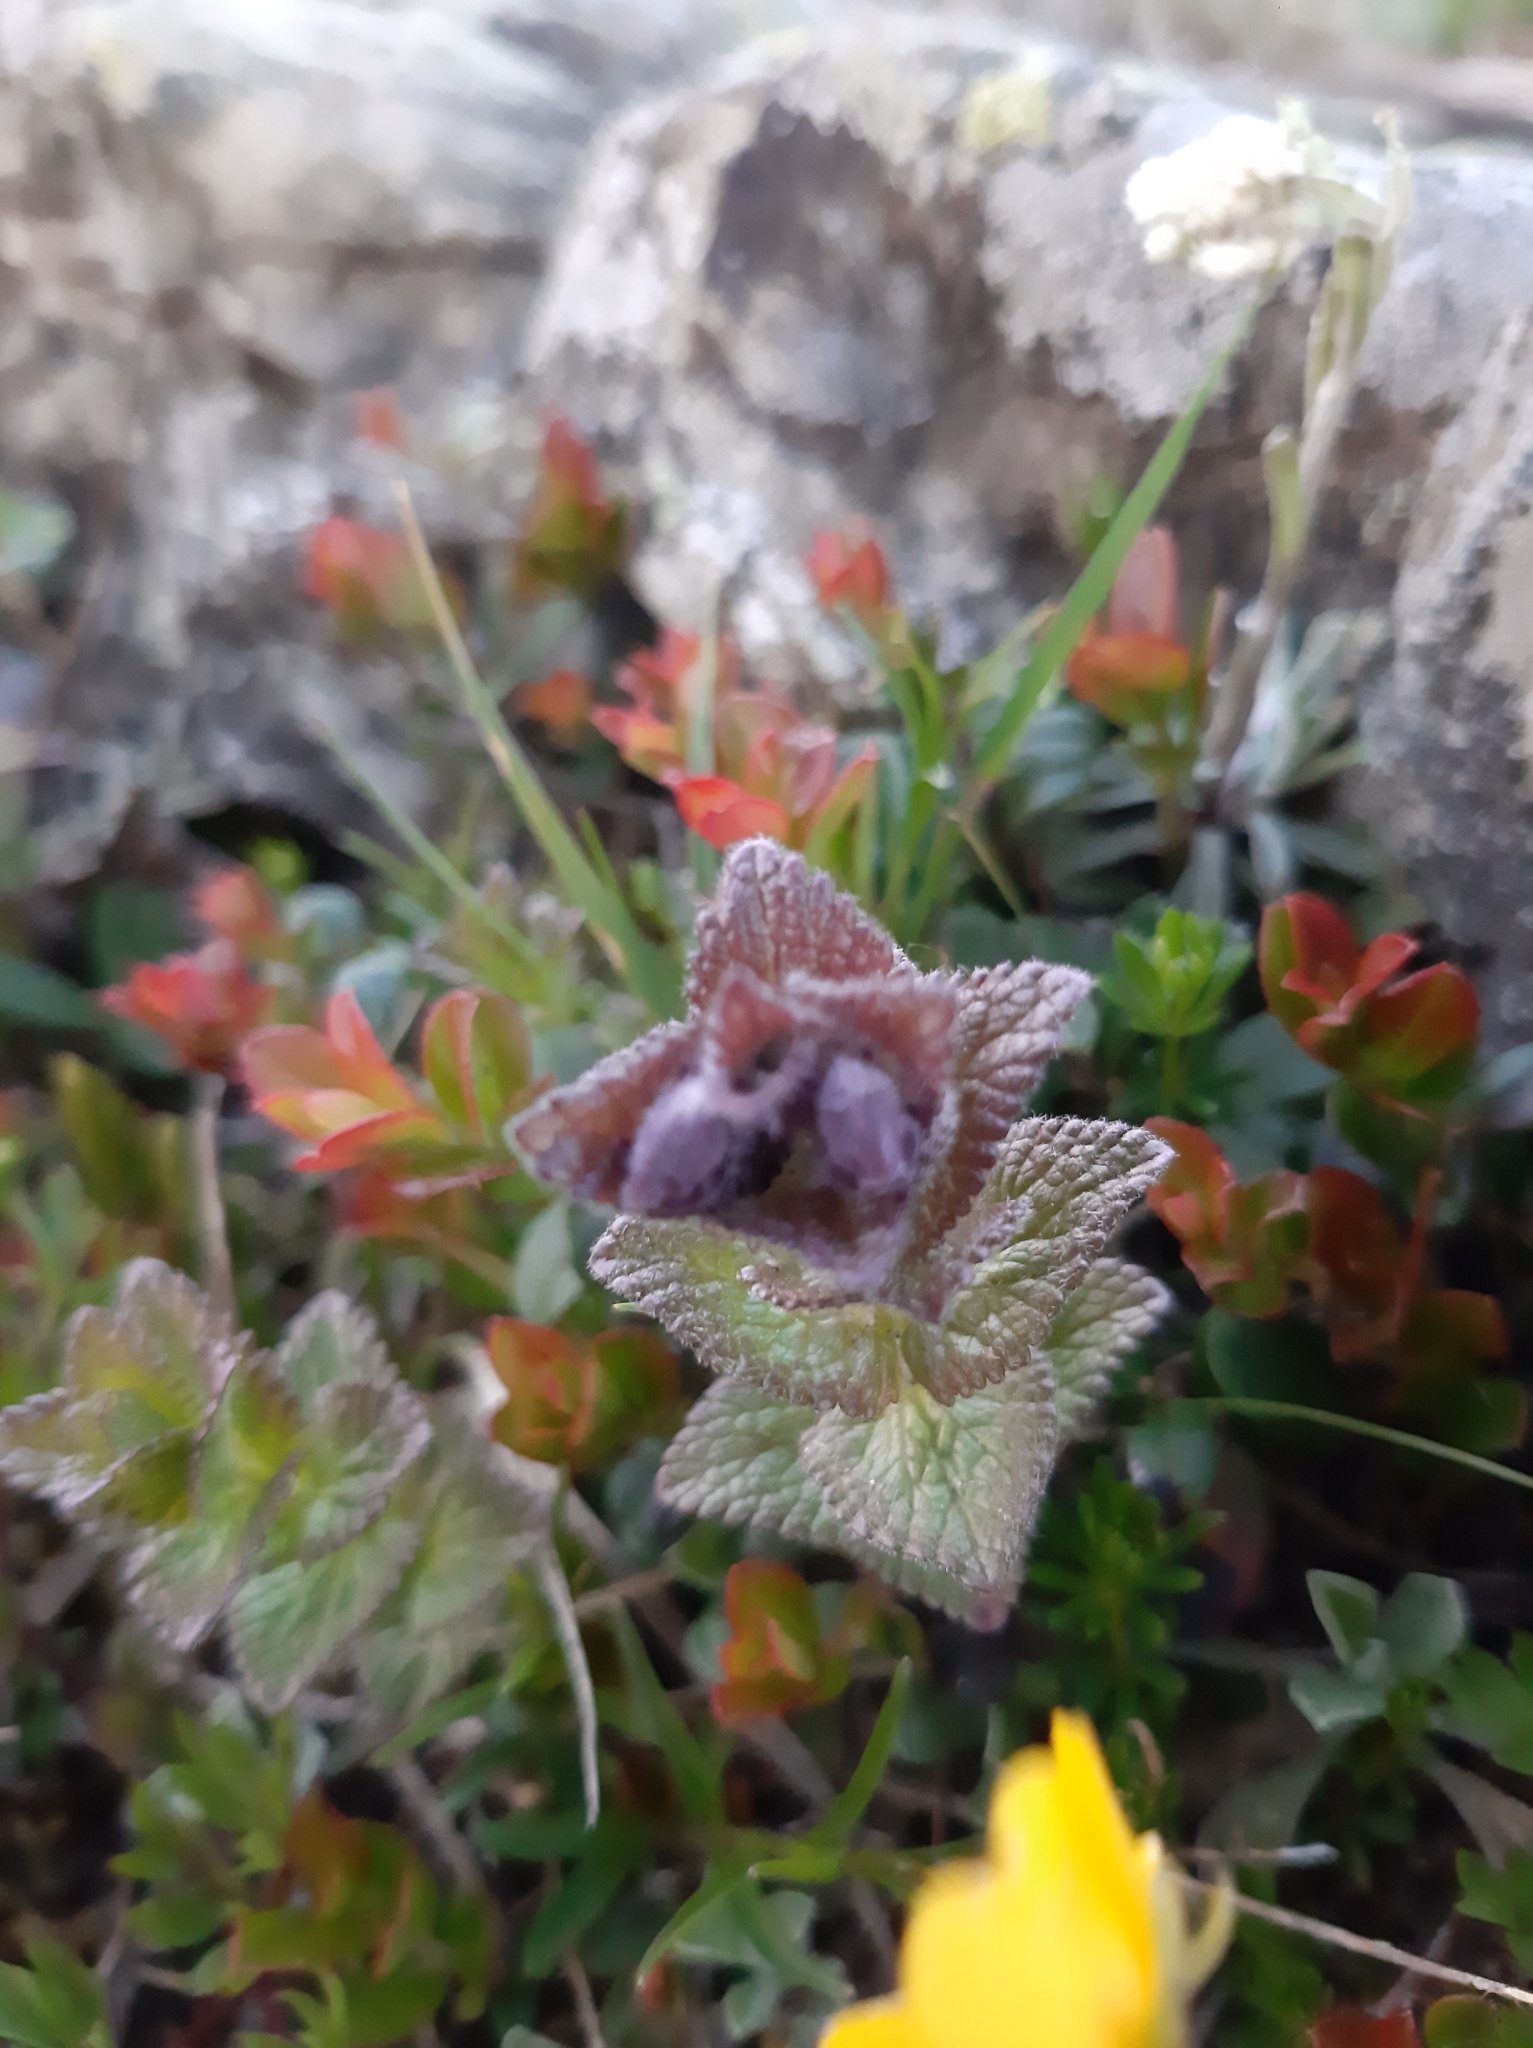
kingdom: Plantae
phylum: Tracheophyta
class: Magnoliopsida
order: Lamiales
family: Orobanchaceae
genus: Bartsia
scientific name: Bartsia alpina
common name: Alpine bartsia
